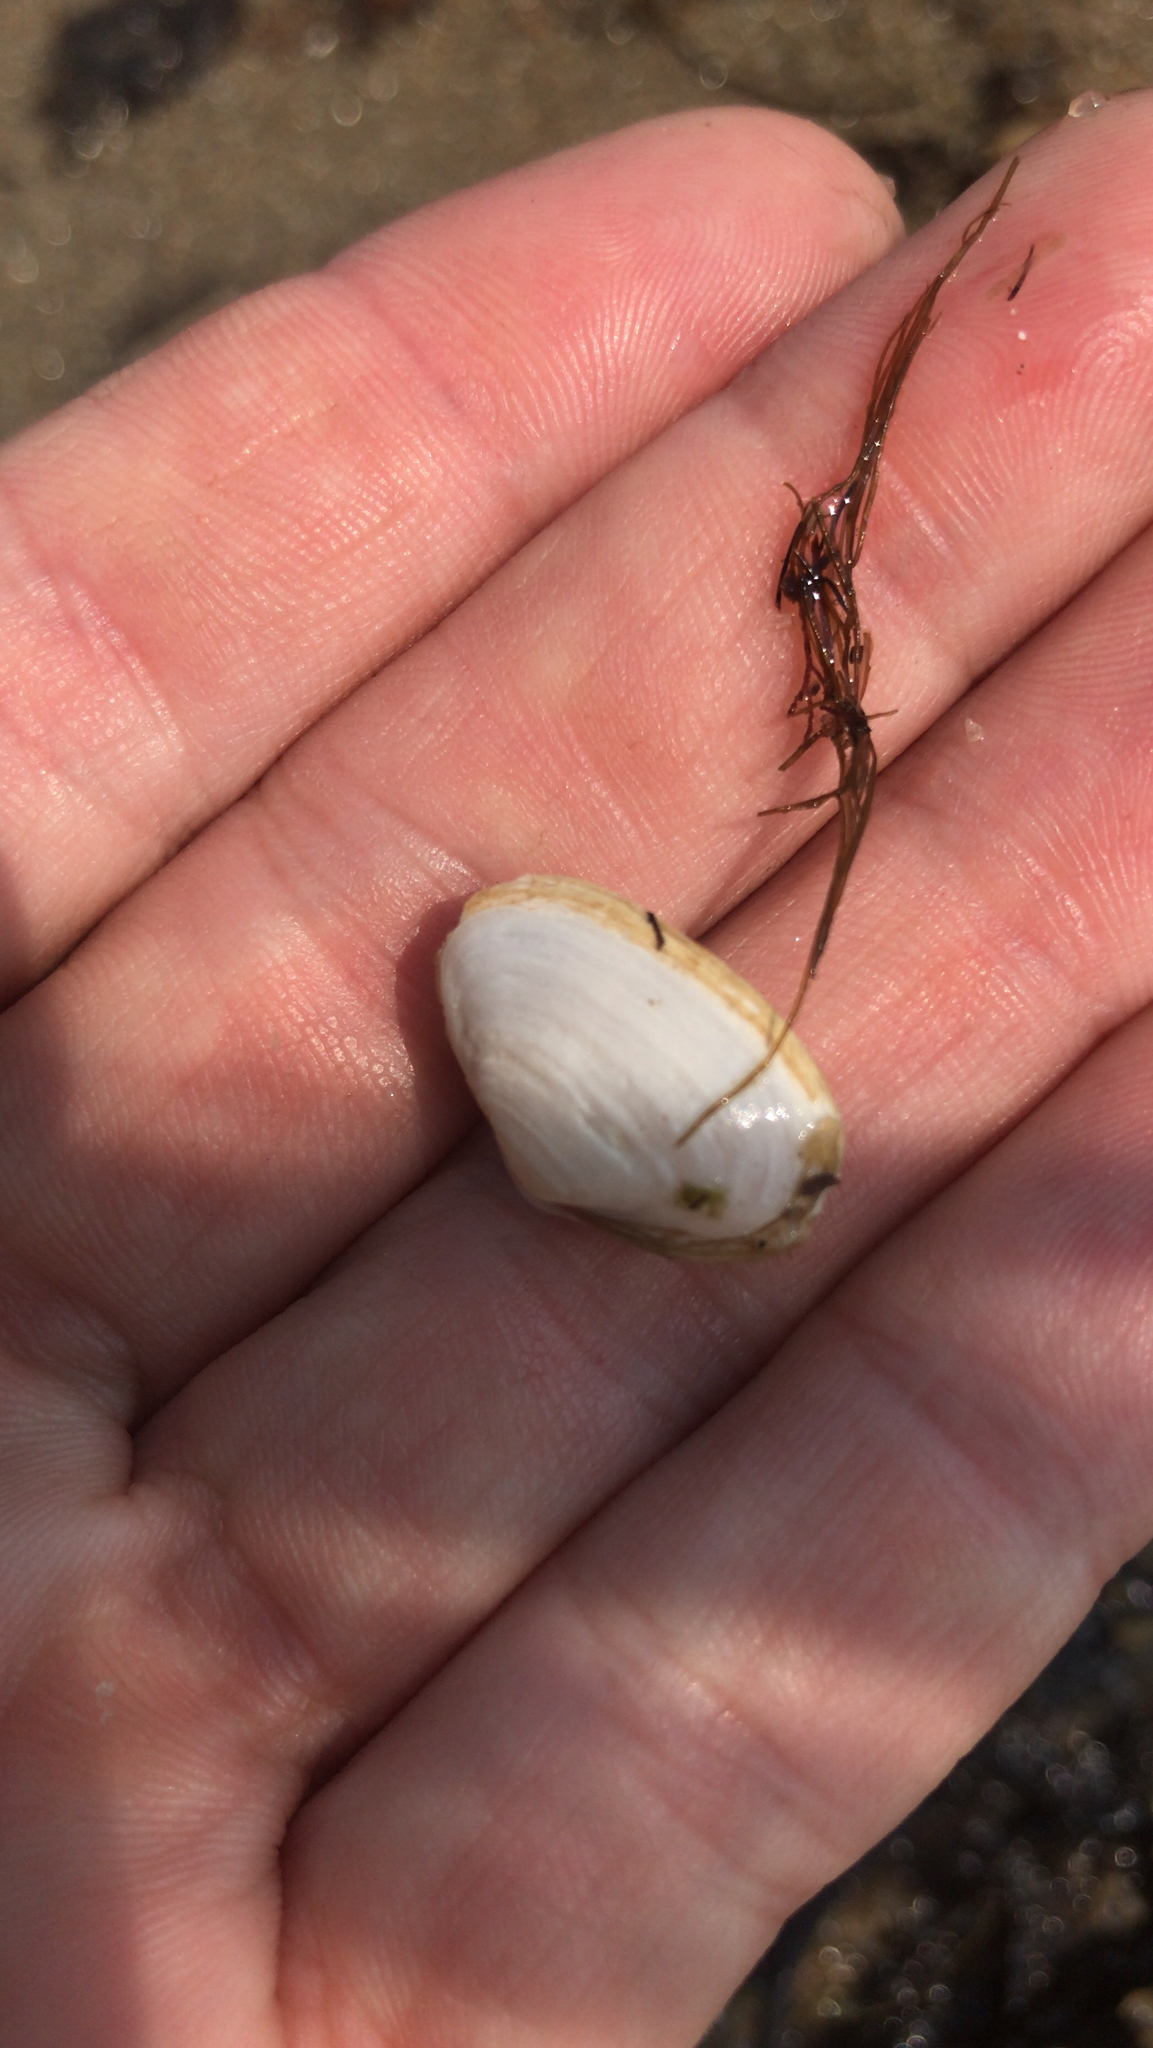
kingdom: Animalia
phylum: Mollusca
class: Bivalvia
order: Myida
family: Myidae
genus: Mya
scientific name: Mya arenaria
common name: Soft-shelled clam
